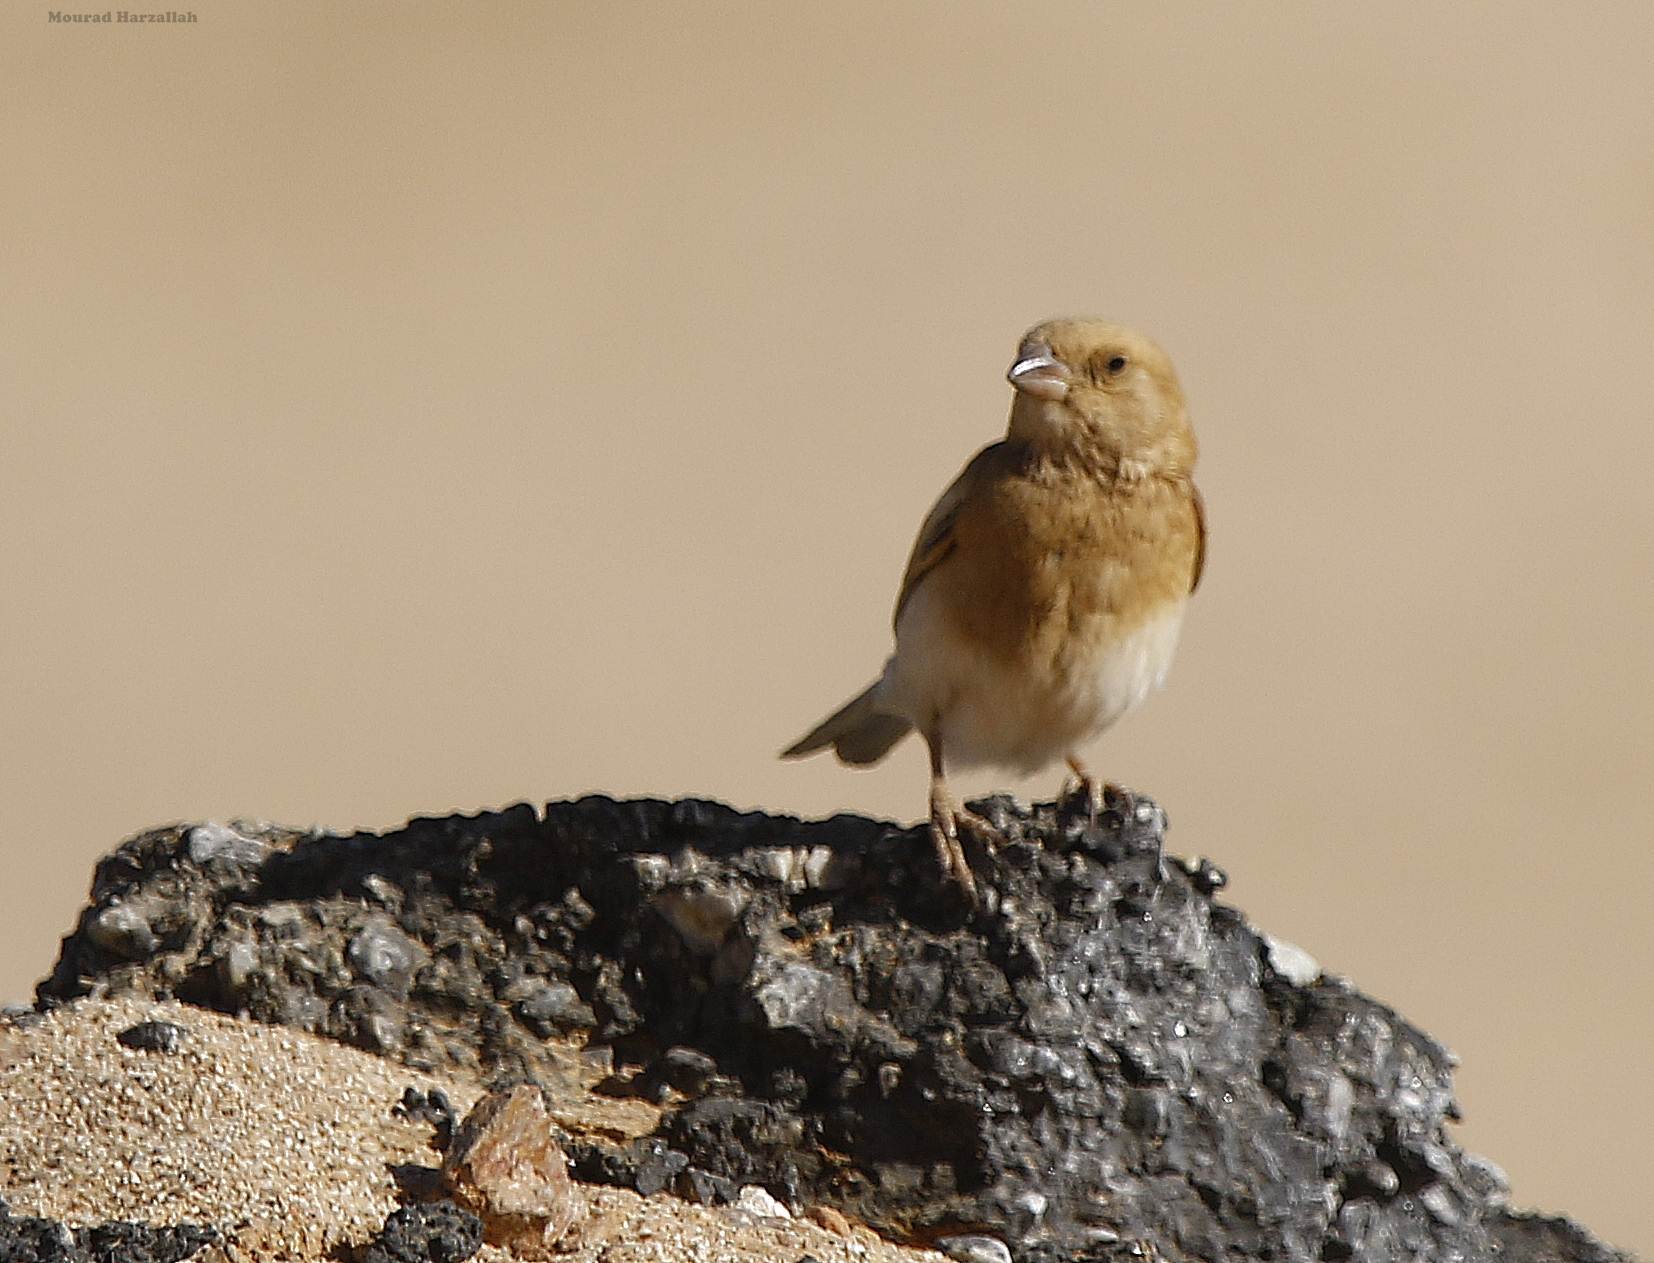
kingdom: Animalia
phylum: Chordata
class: Aves
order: Passeriformes
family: Passeridae
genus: Passer
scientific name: Passer simplex
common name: Desert sparrow
